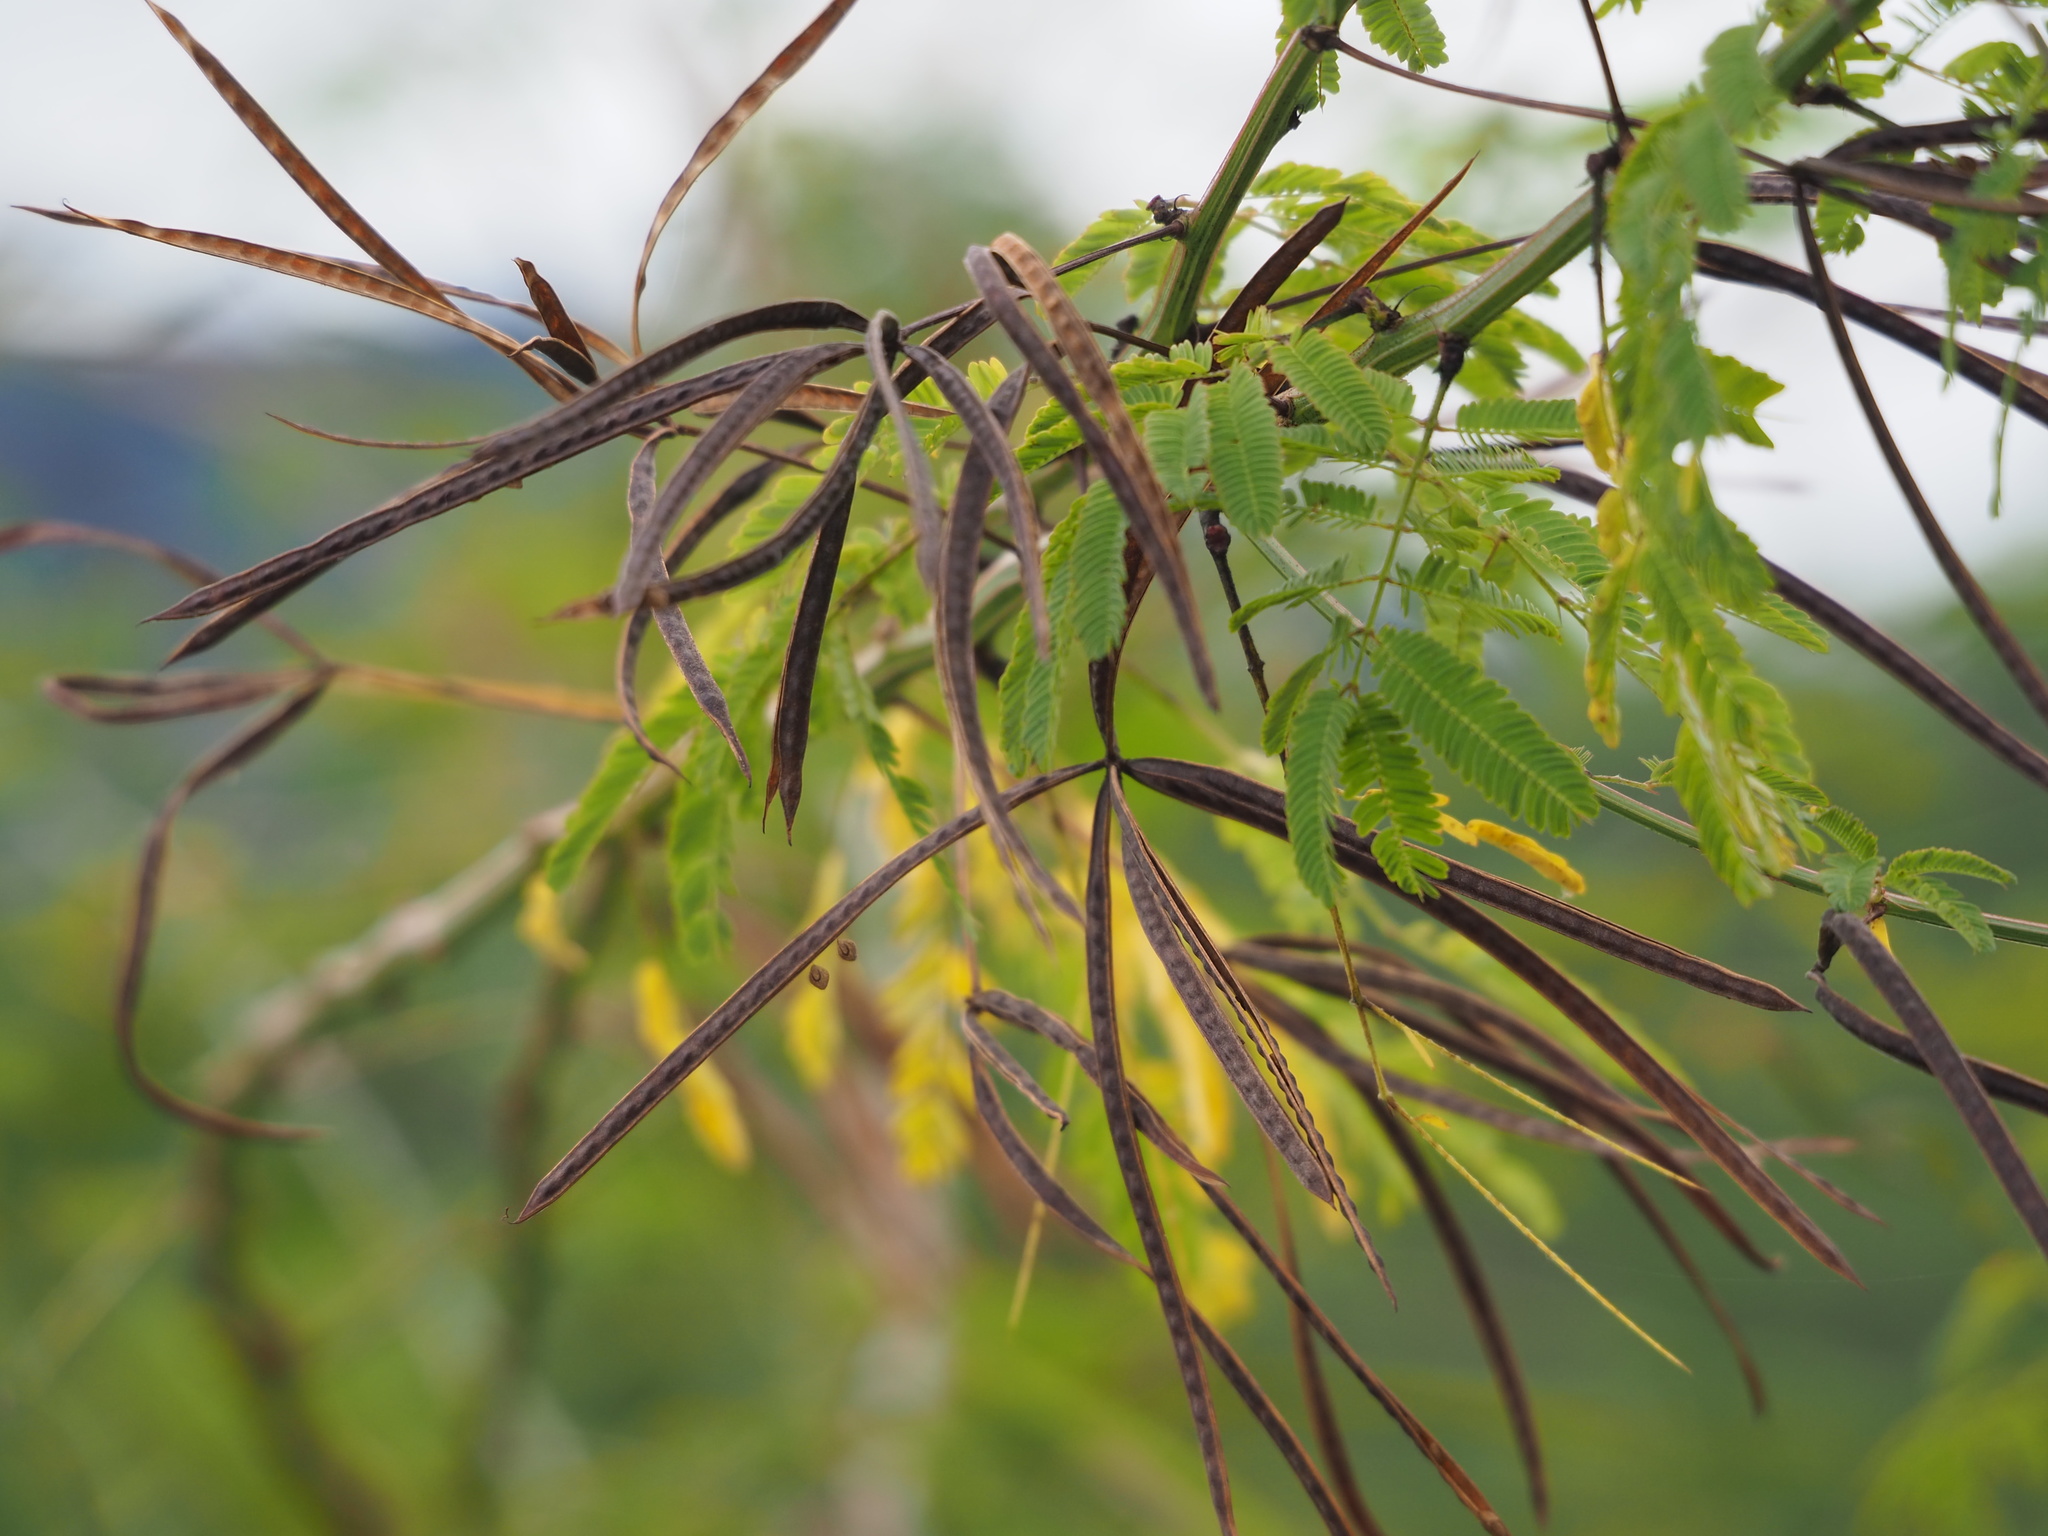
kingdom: Plantae
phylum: Tracheophyta
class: Magnoliopsida
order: Fabales
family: Fabaceae
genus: Desmanthus
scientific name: Desmanthus virgatus
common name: Wild tantan
